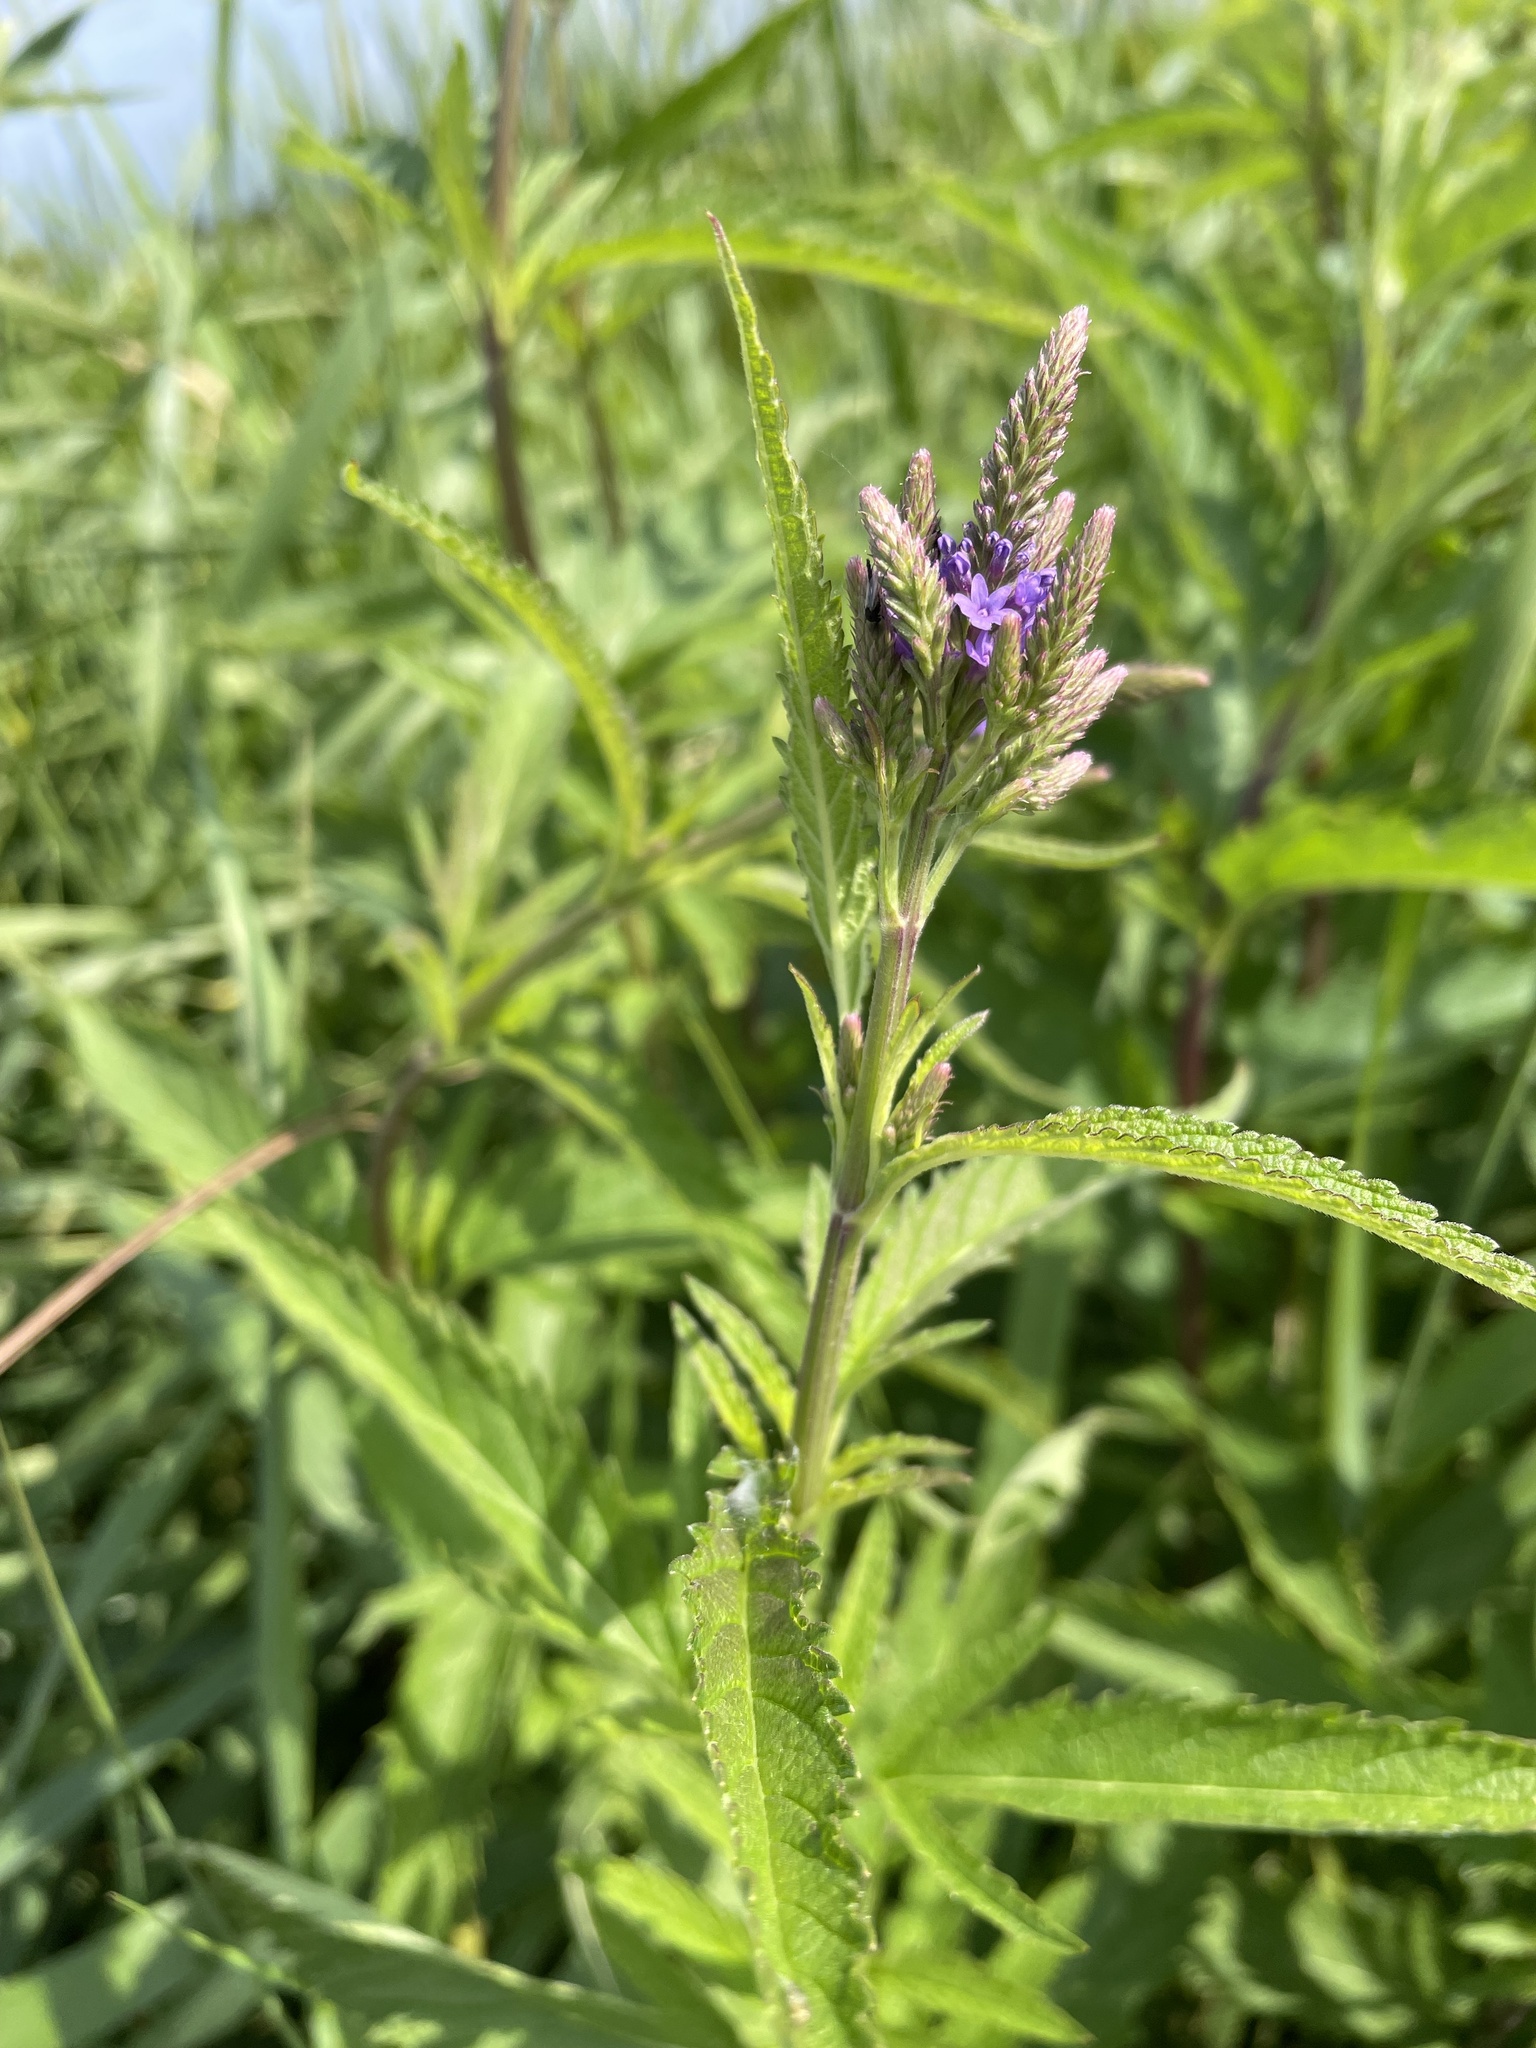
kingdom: Plantae
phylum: Tracheophyta
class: Magnoliopsida
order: Lamiales
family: Verbenaceae
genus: Verbena
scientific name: Verbena hastata
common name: American blue vervain
